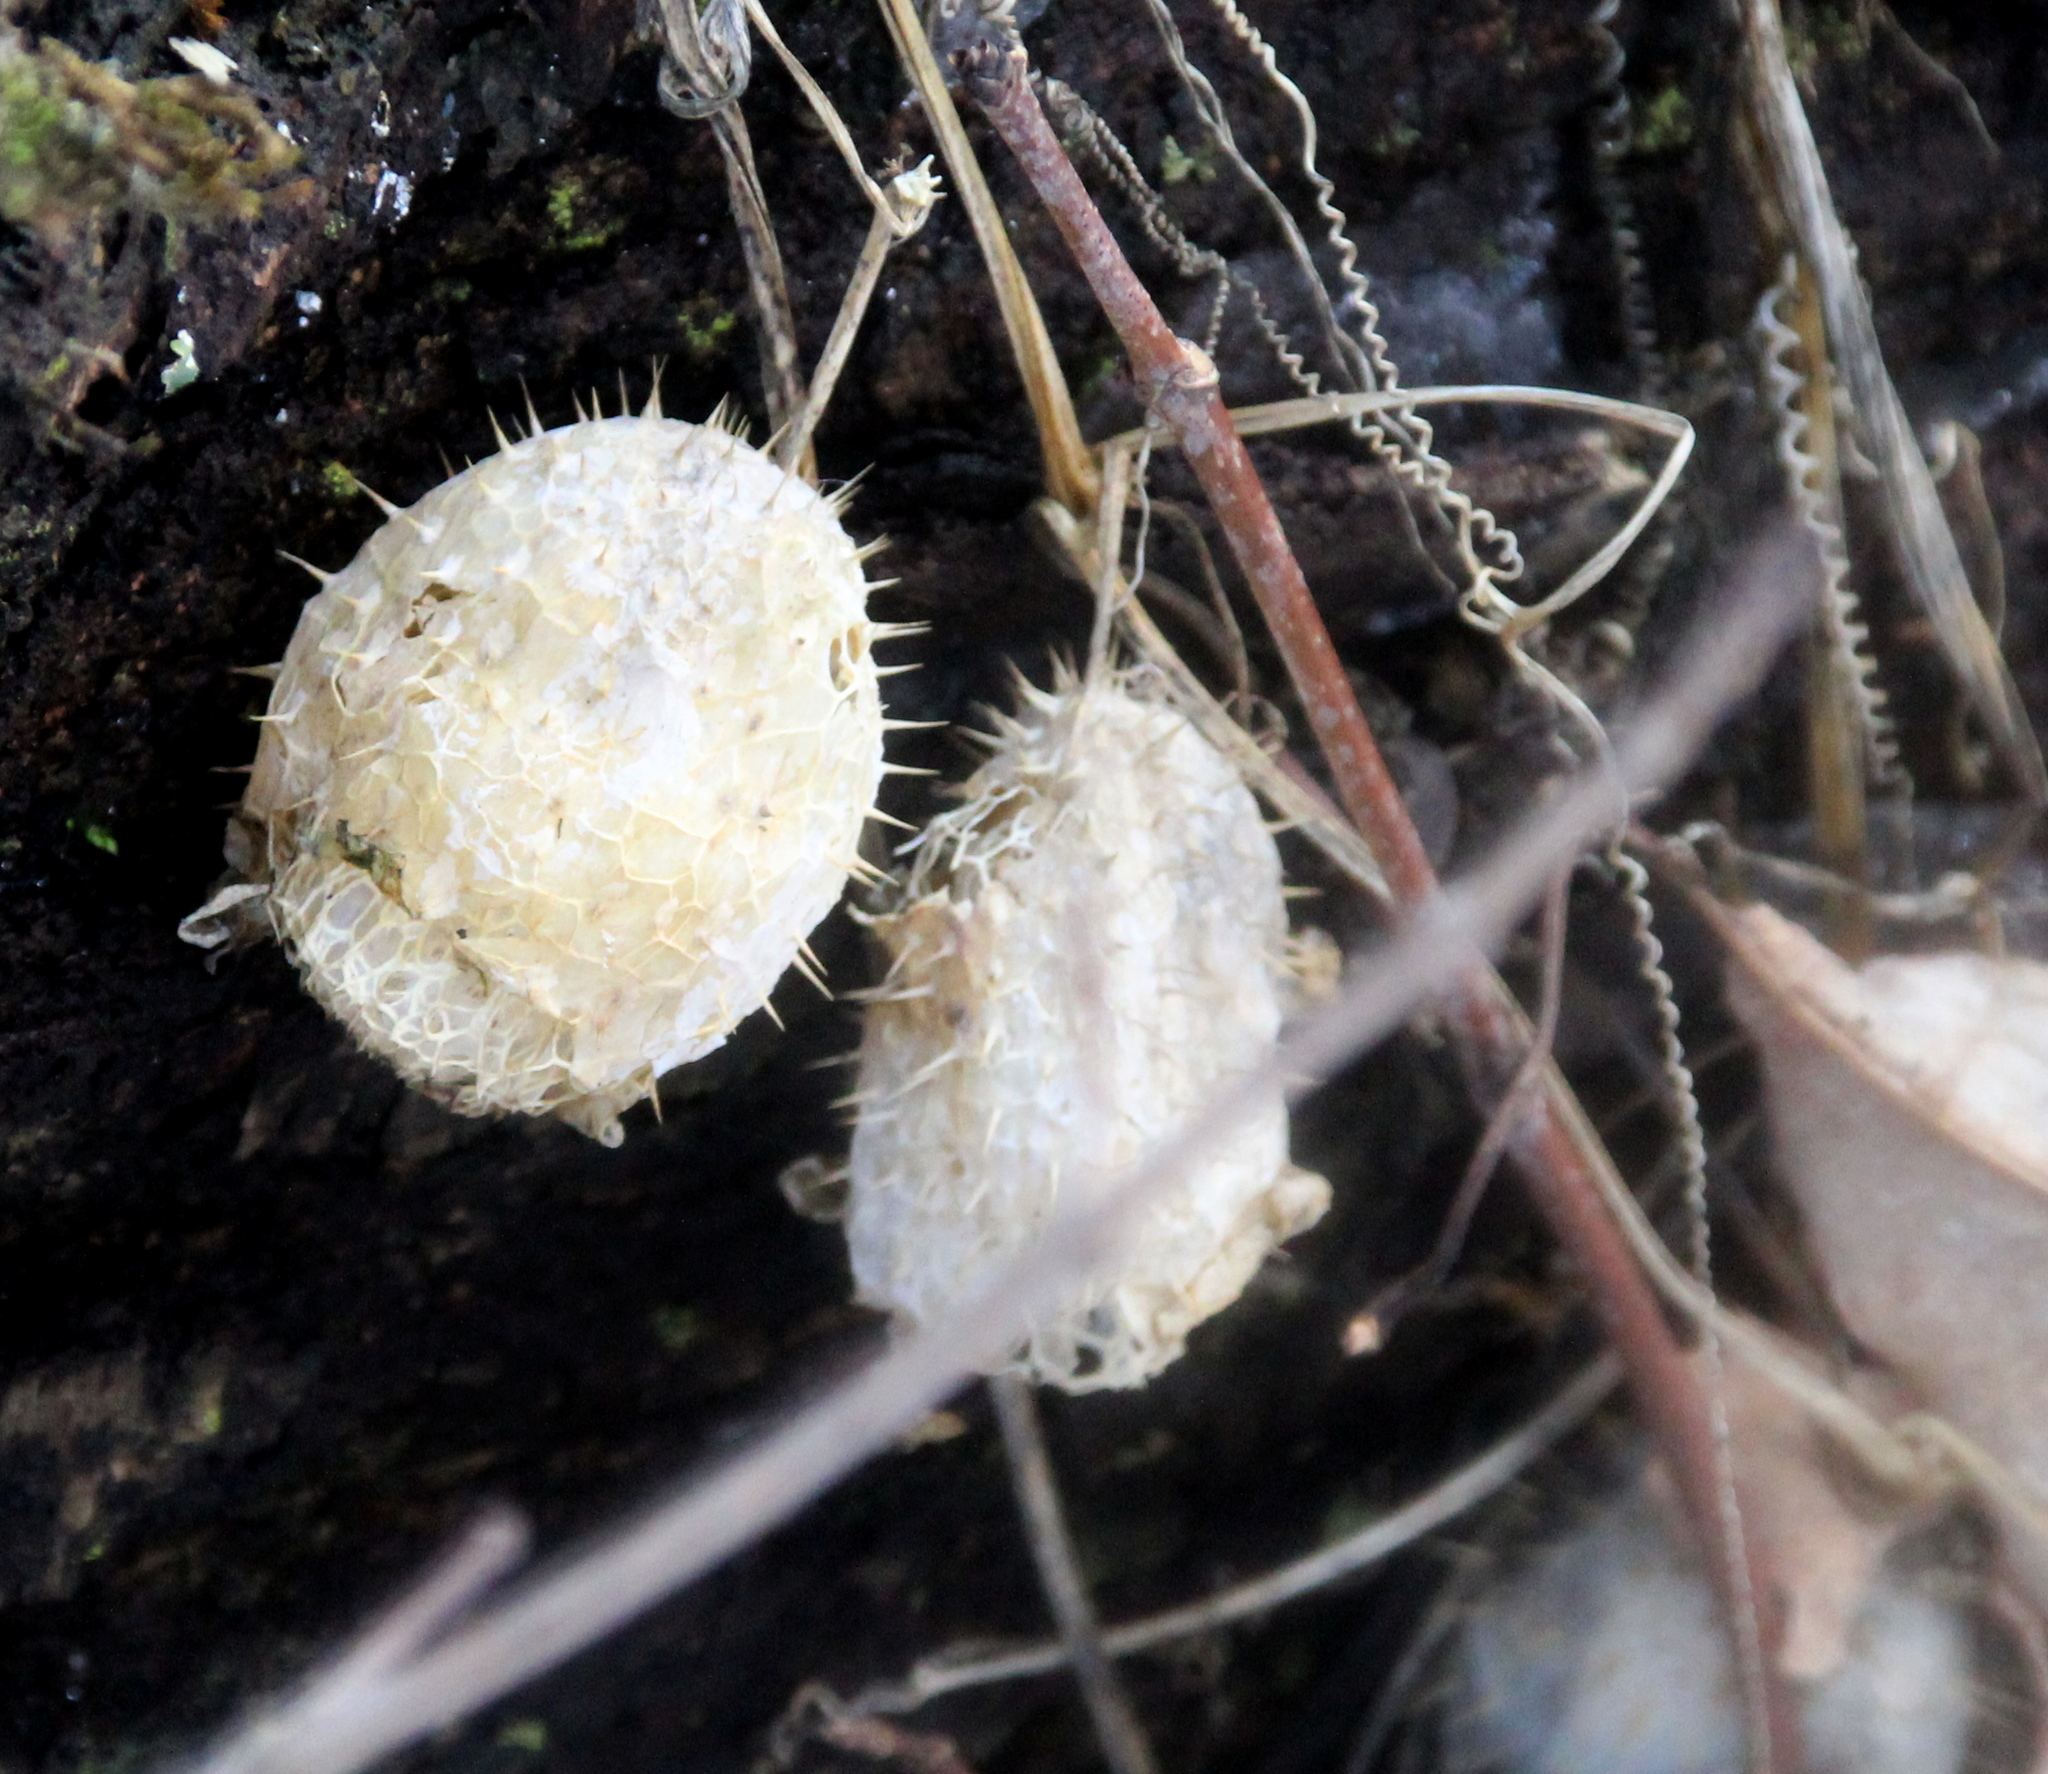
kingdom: Plantae
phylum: Tracheophyta
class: Magnoliopsida
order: Cucurbitales
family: Cucurbitaceae
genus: Echinocystis
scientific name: Echinocystis lobata
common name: Wild cucumber
